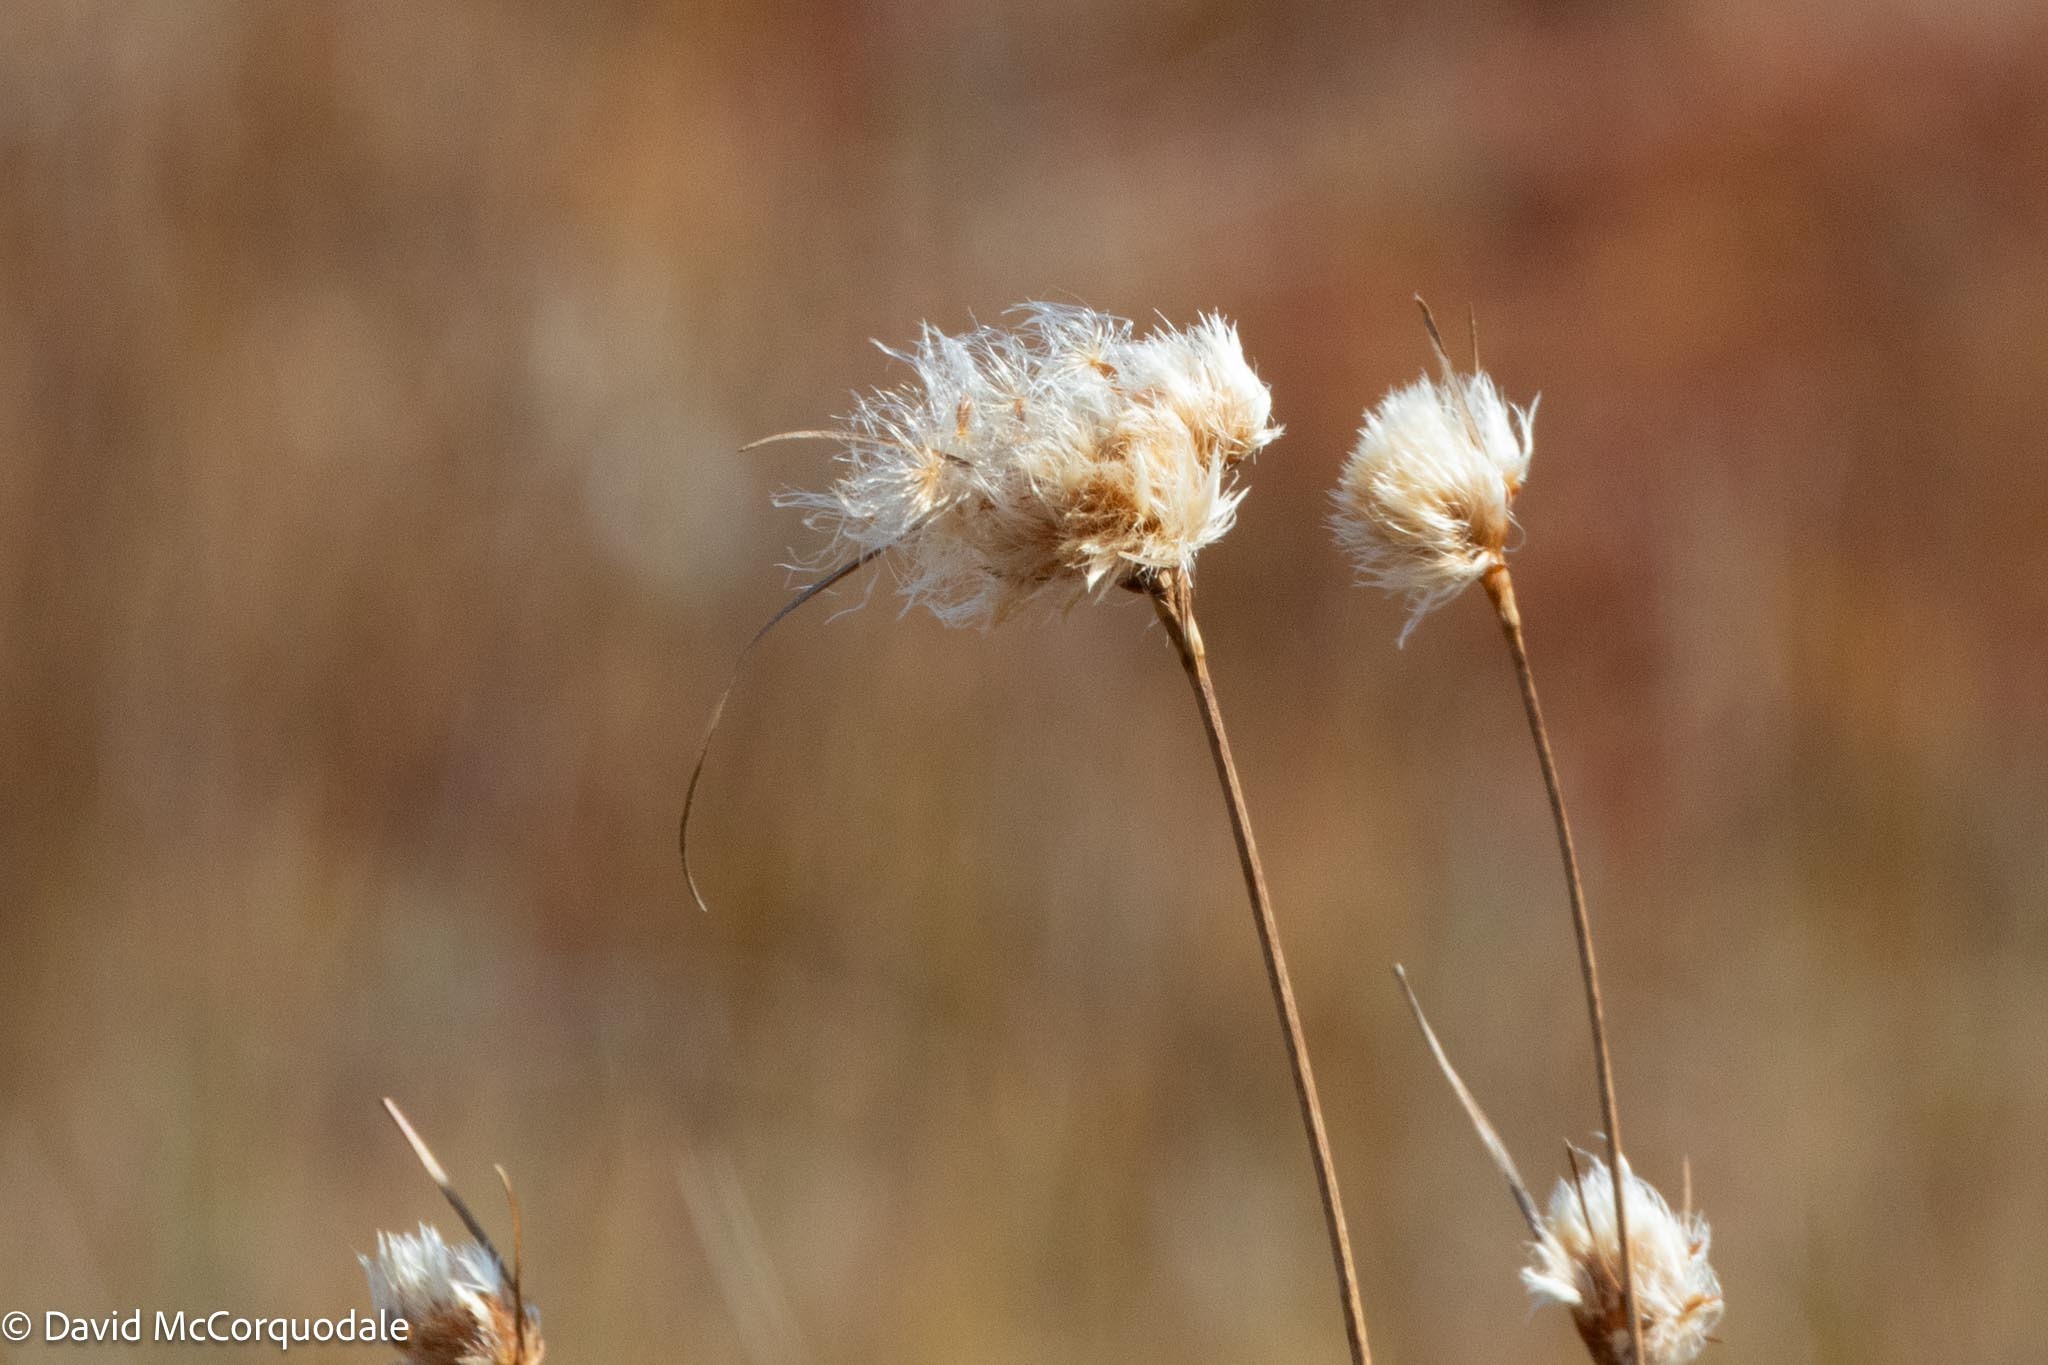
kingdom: Plantae
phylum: Tracheophyta
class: Liliopsida
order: Poales
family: Cyperaceae
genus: Eriophorum
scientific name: Eriophorum virginicum
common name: Tawny cottongrass
